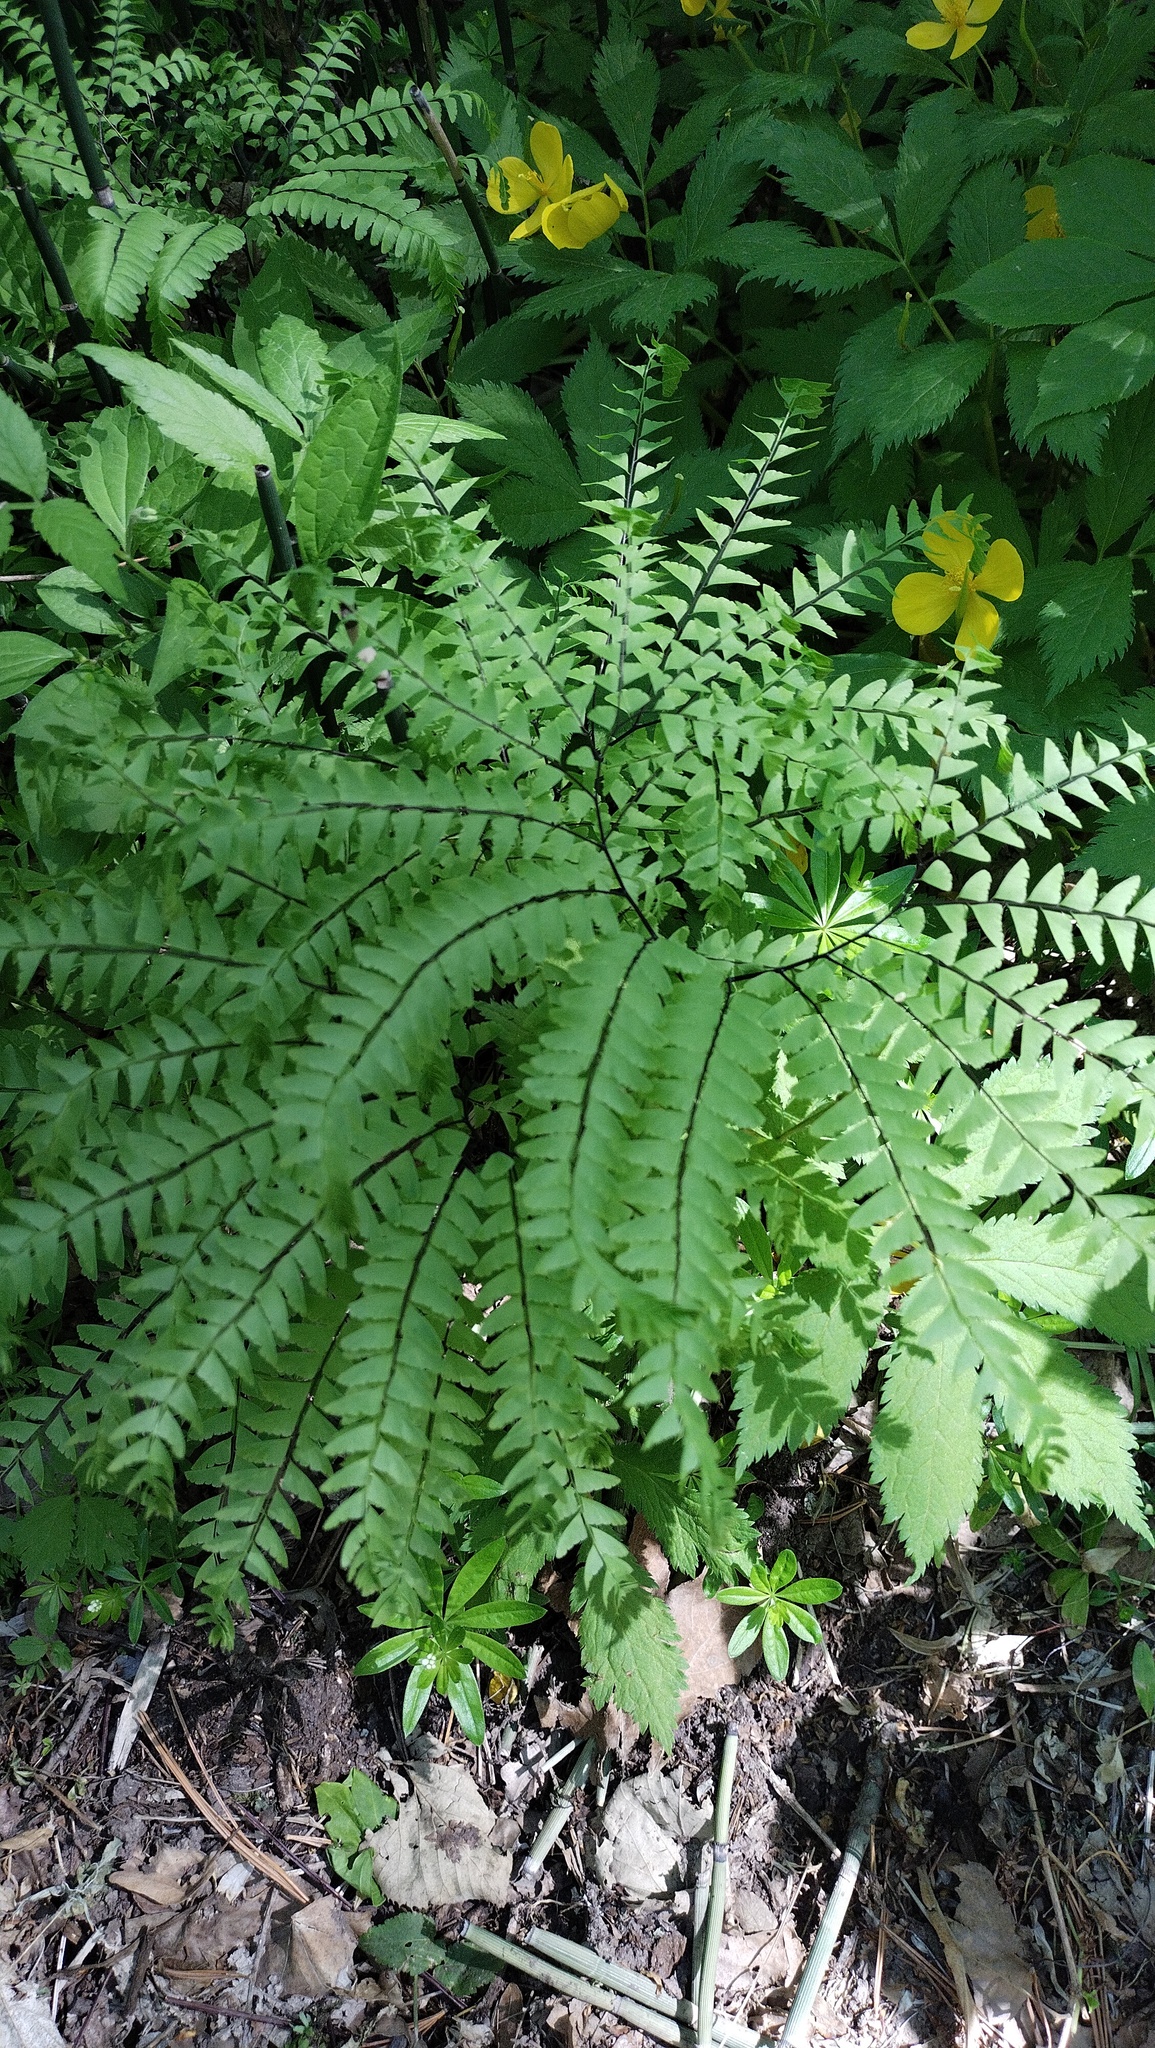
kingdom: Plantae
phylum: Tracheophyta
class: Polypodiopsida
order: Polypodiales
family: Pteridaceae
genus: Adiantum
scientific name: Adiantum pedatum
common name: Five-finger fern
